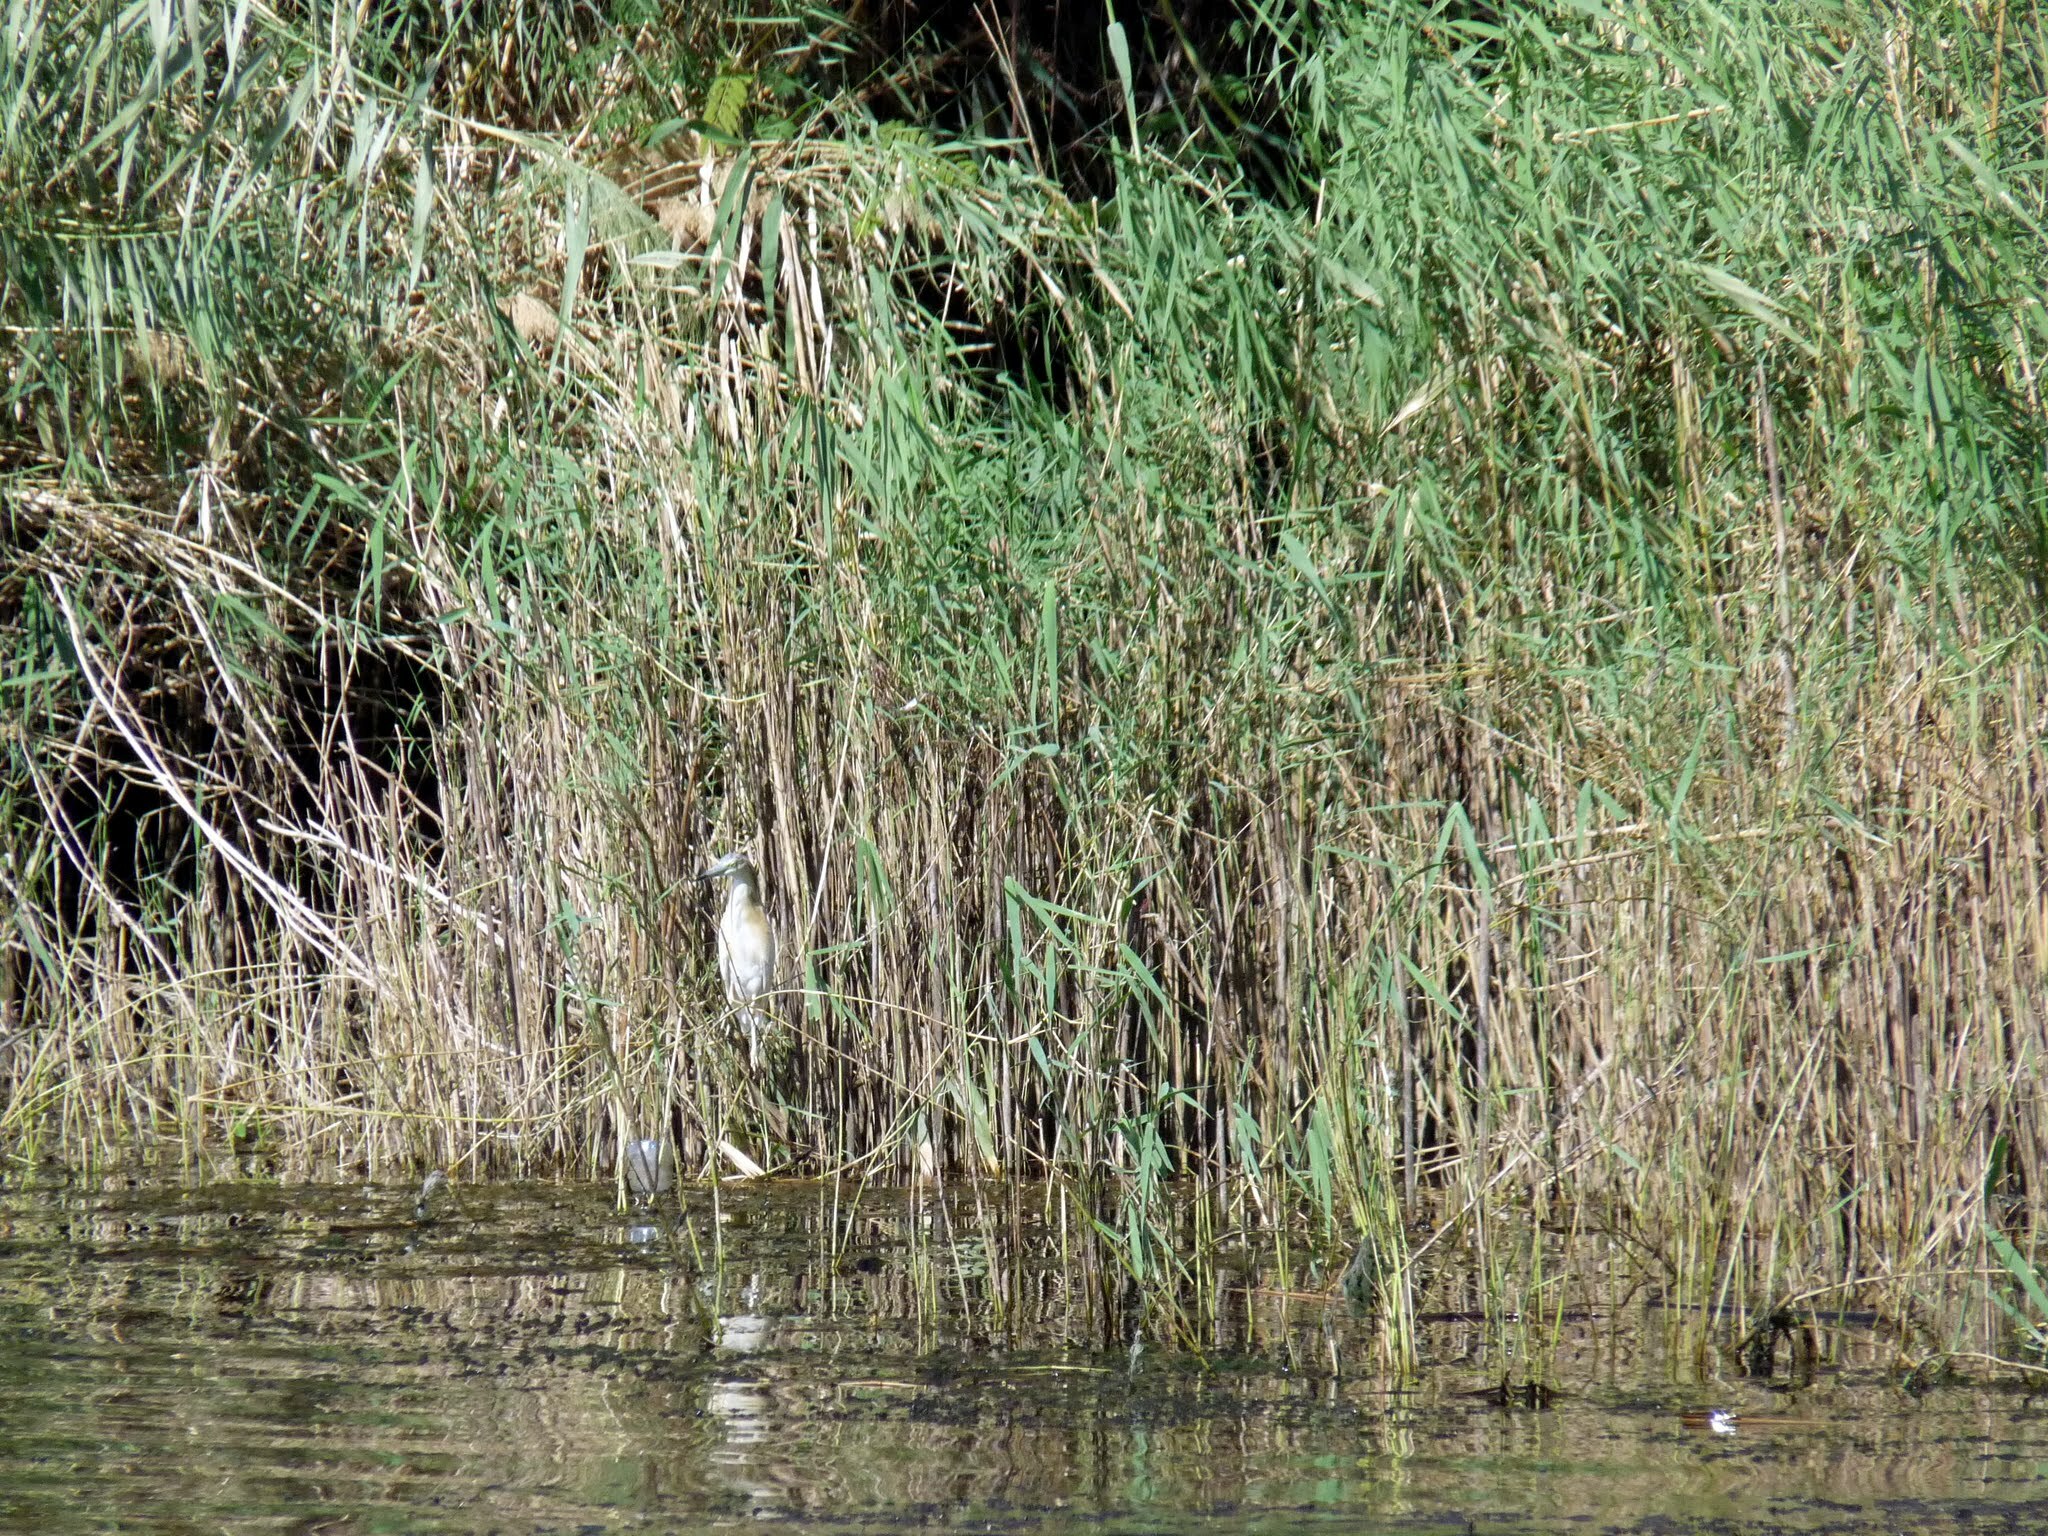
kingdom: Animalia
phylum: Chordata
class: Aves
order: Pelecaniformes
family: Ardeidae
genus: Ardeola
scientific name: Ardeola ralloides
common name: Squacco heron
